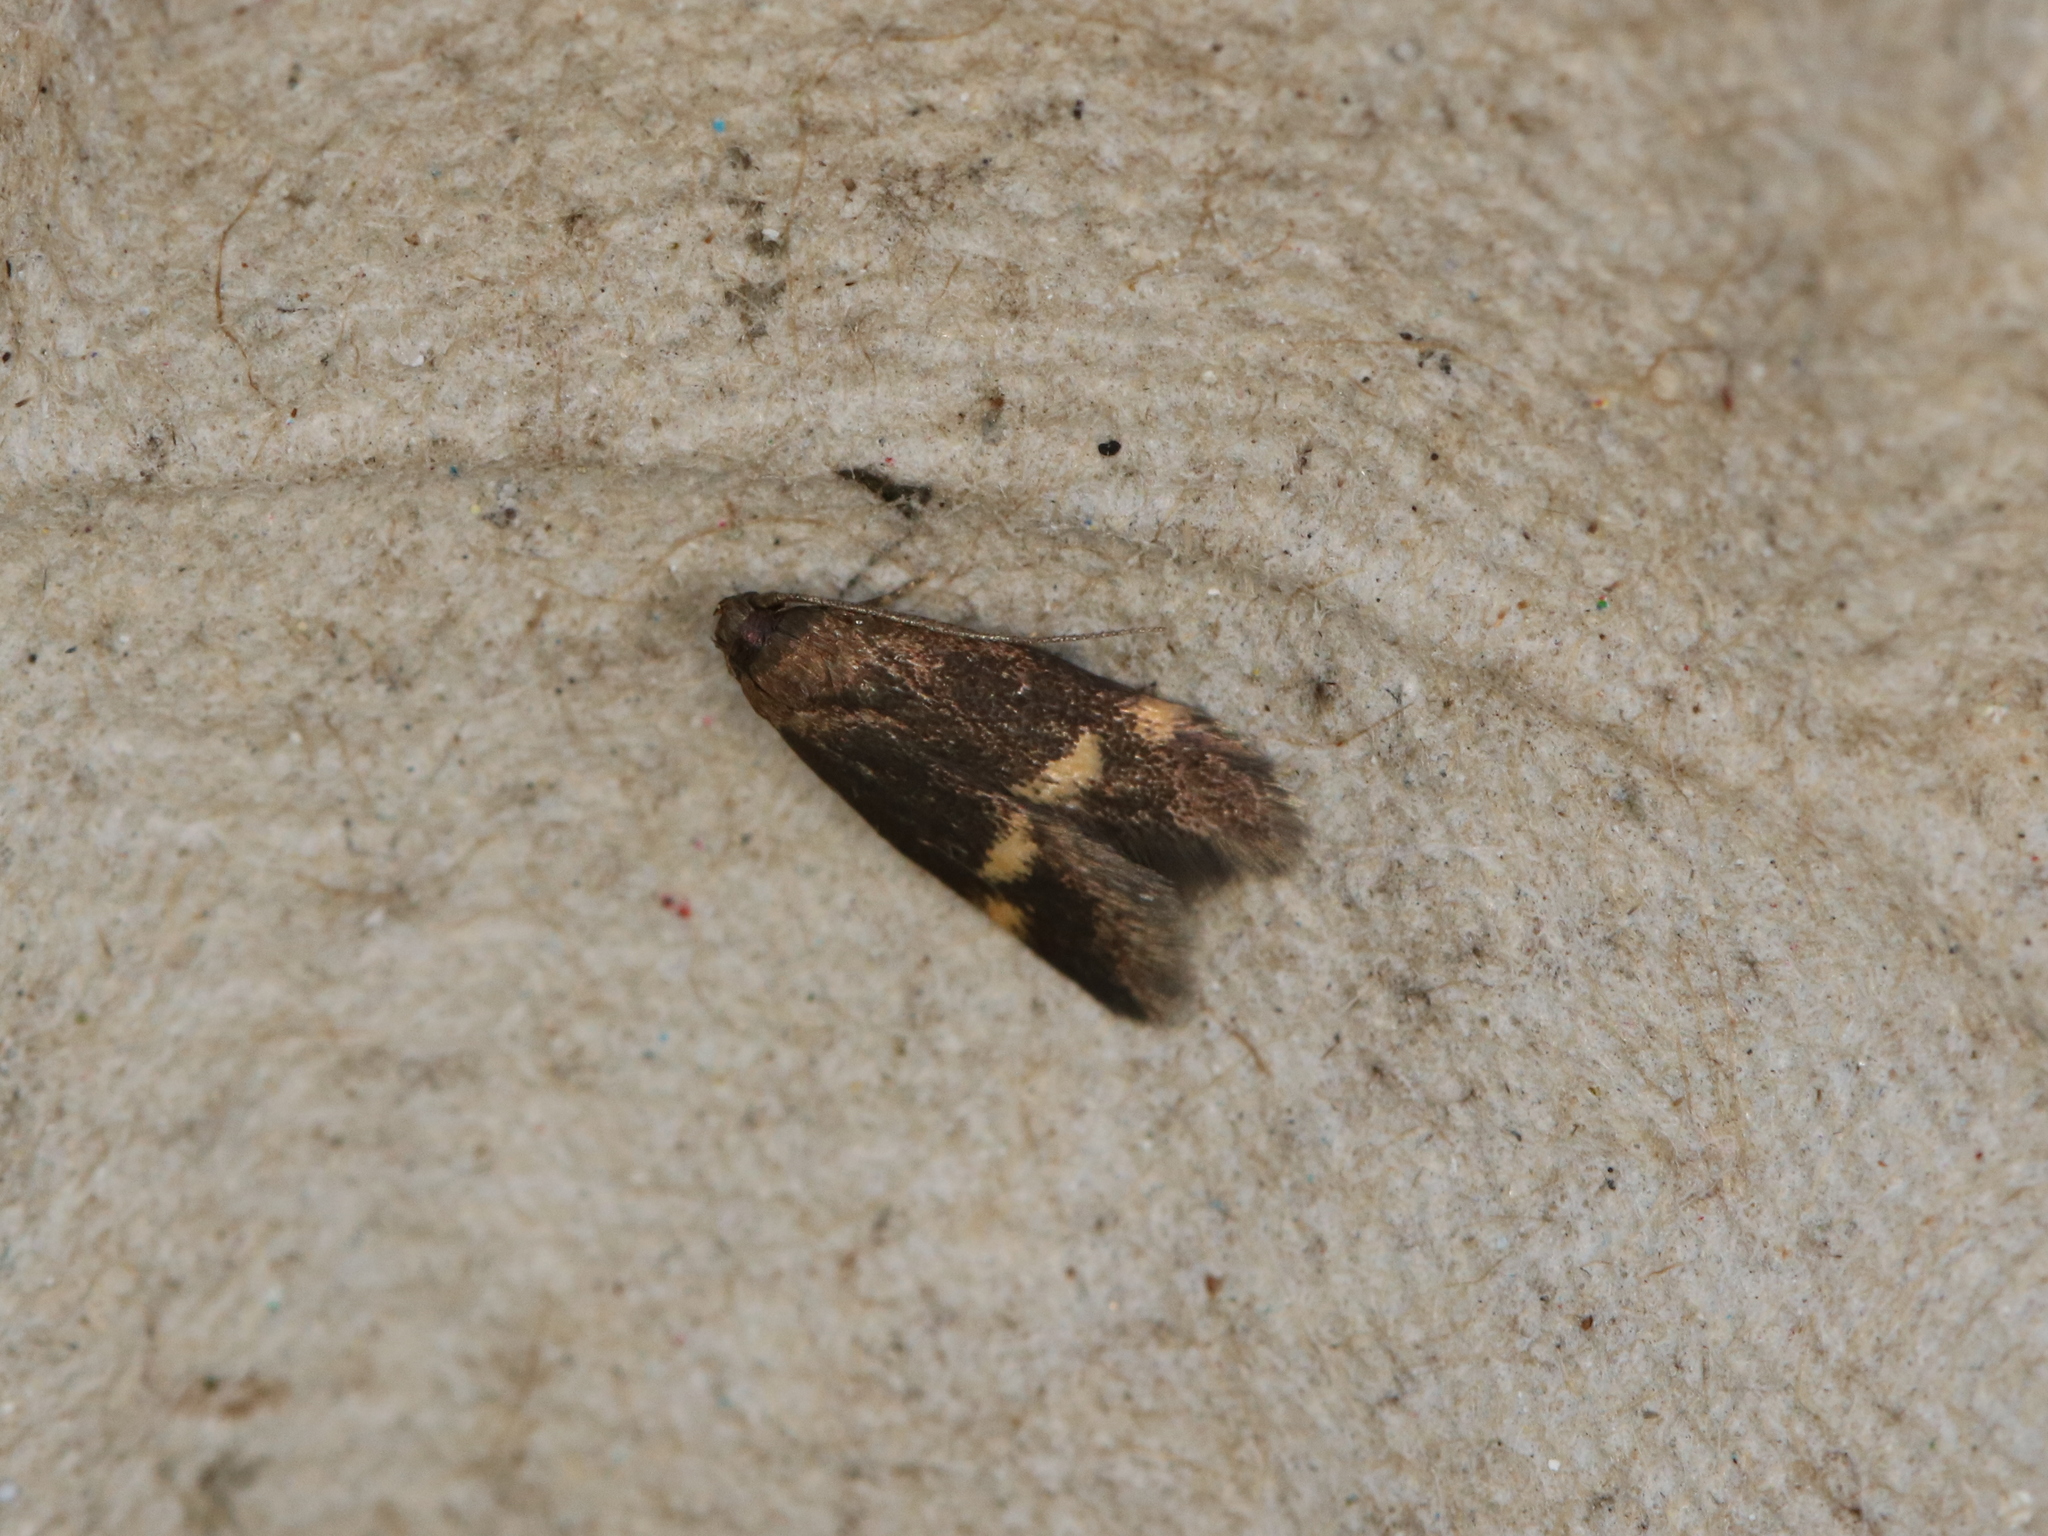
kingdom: Animalia
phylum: Arthropoda
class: Insecta
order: Lepidoptera
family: Oecophoridae
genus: Borkhausenia
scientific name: Borkhausenia minutella
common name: Thatch tubic
